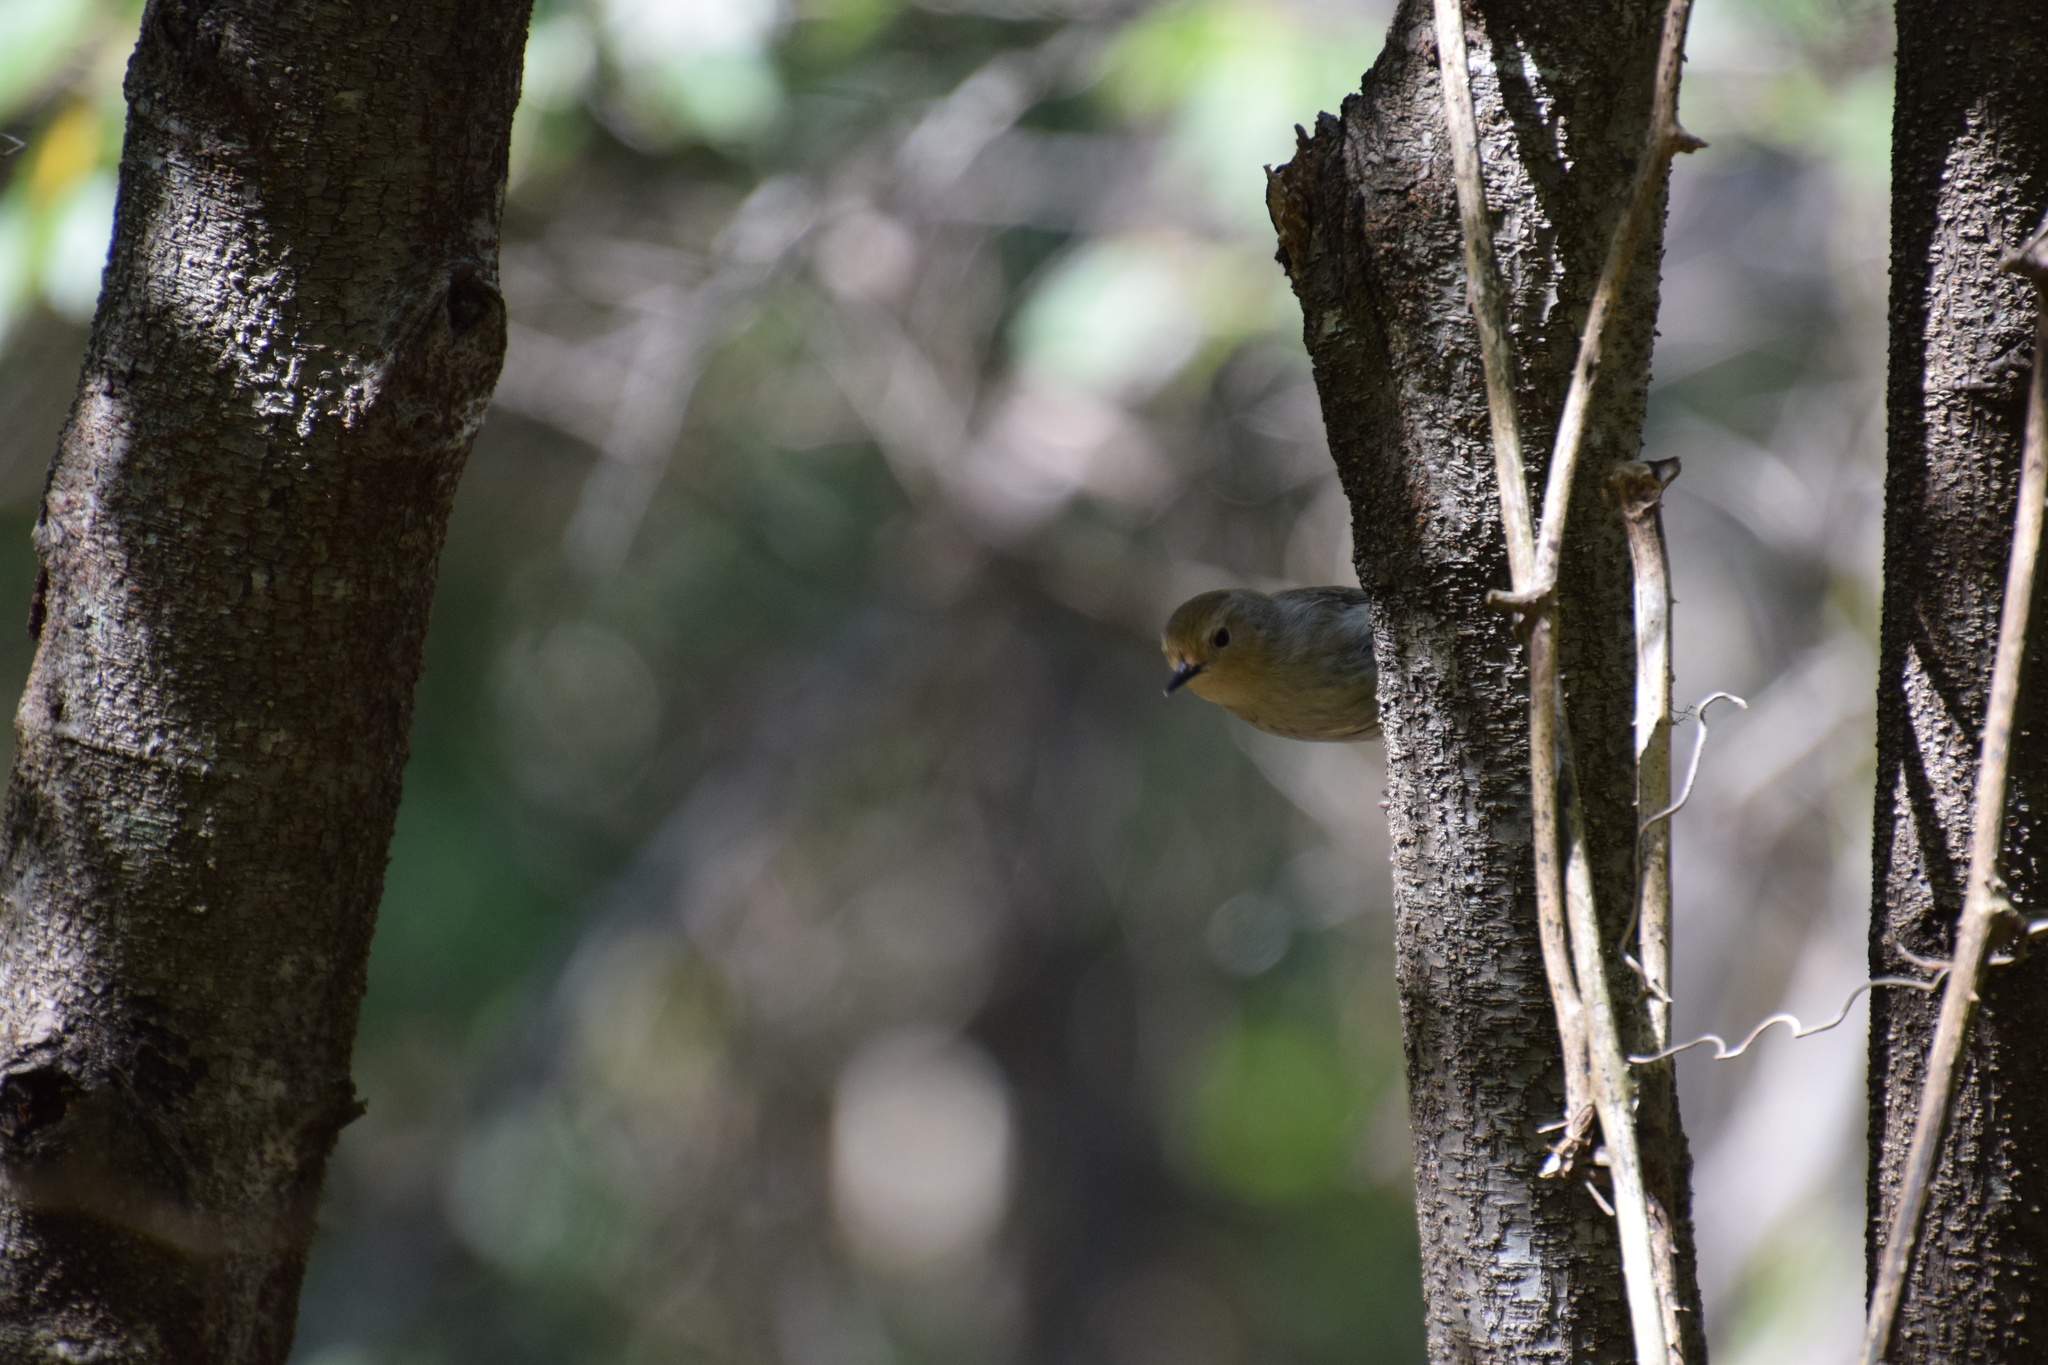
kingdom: Animalia
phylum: Chordata
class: Aves
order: Passeriformes
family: Acanthizidae
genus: Sericornis
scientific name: Sericornis magnirostra
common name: Large-billed scrubwren
